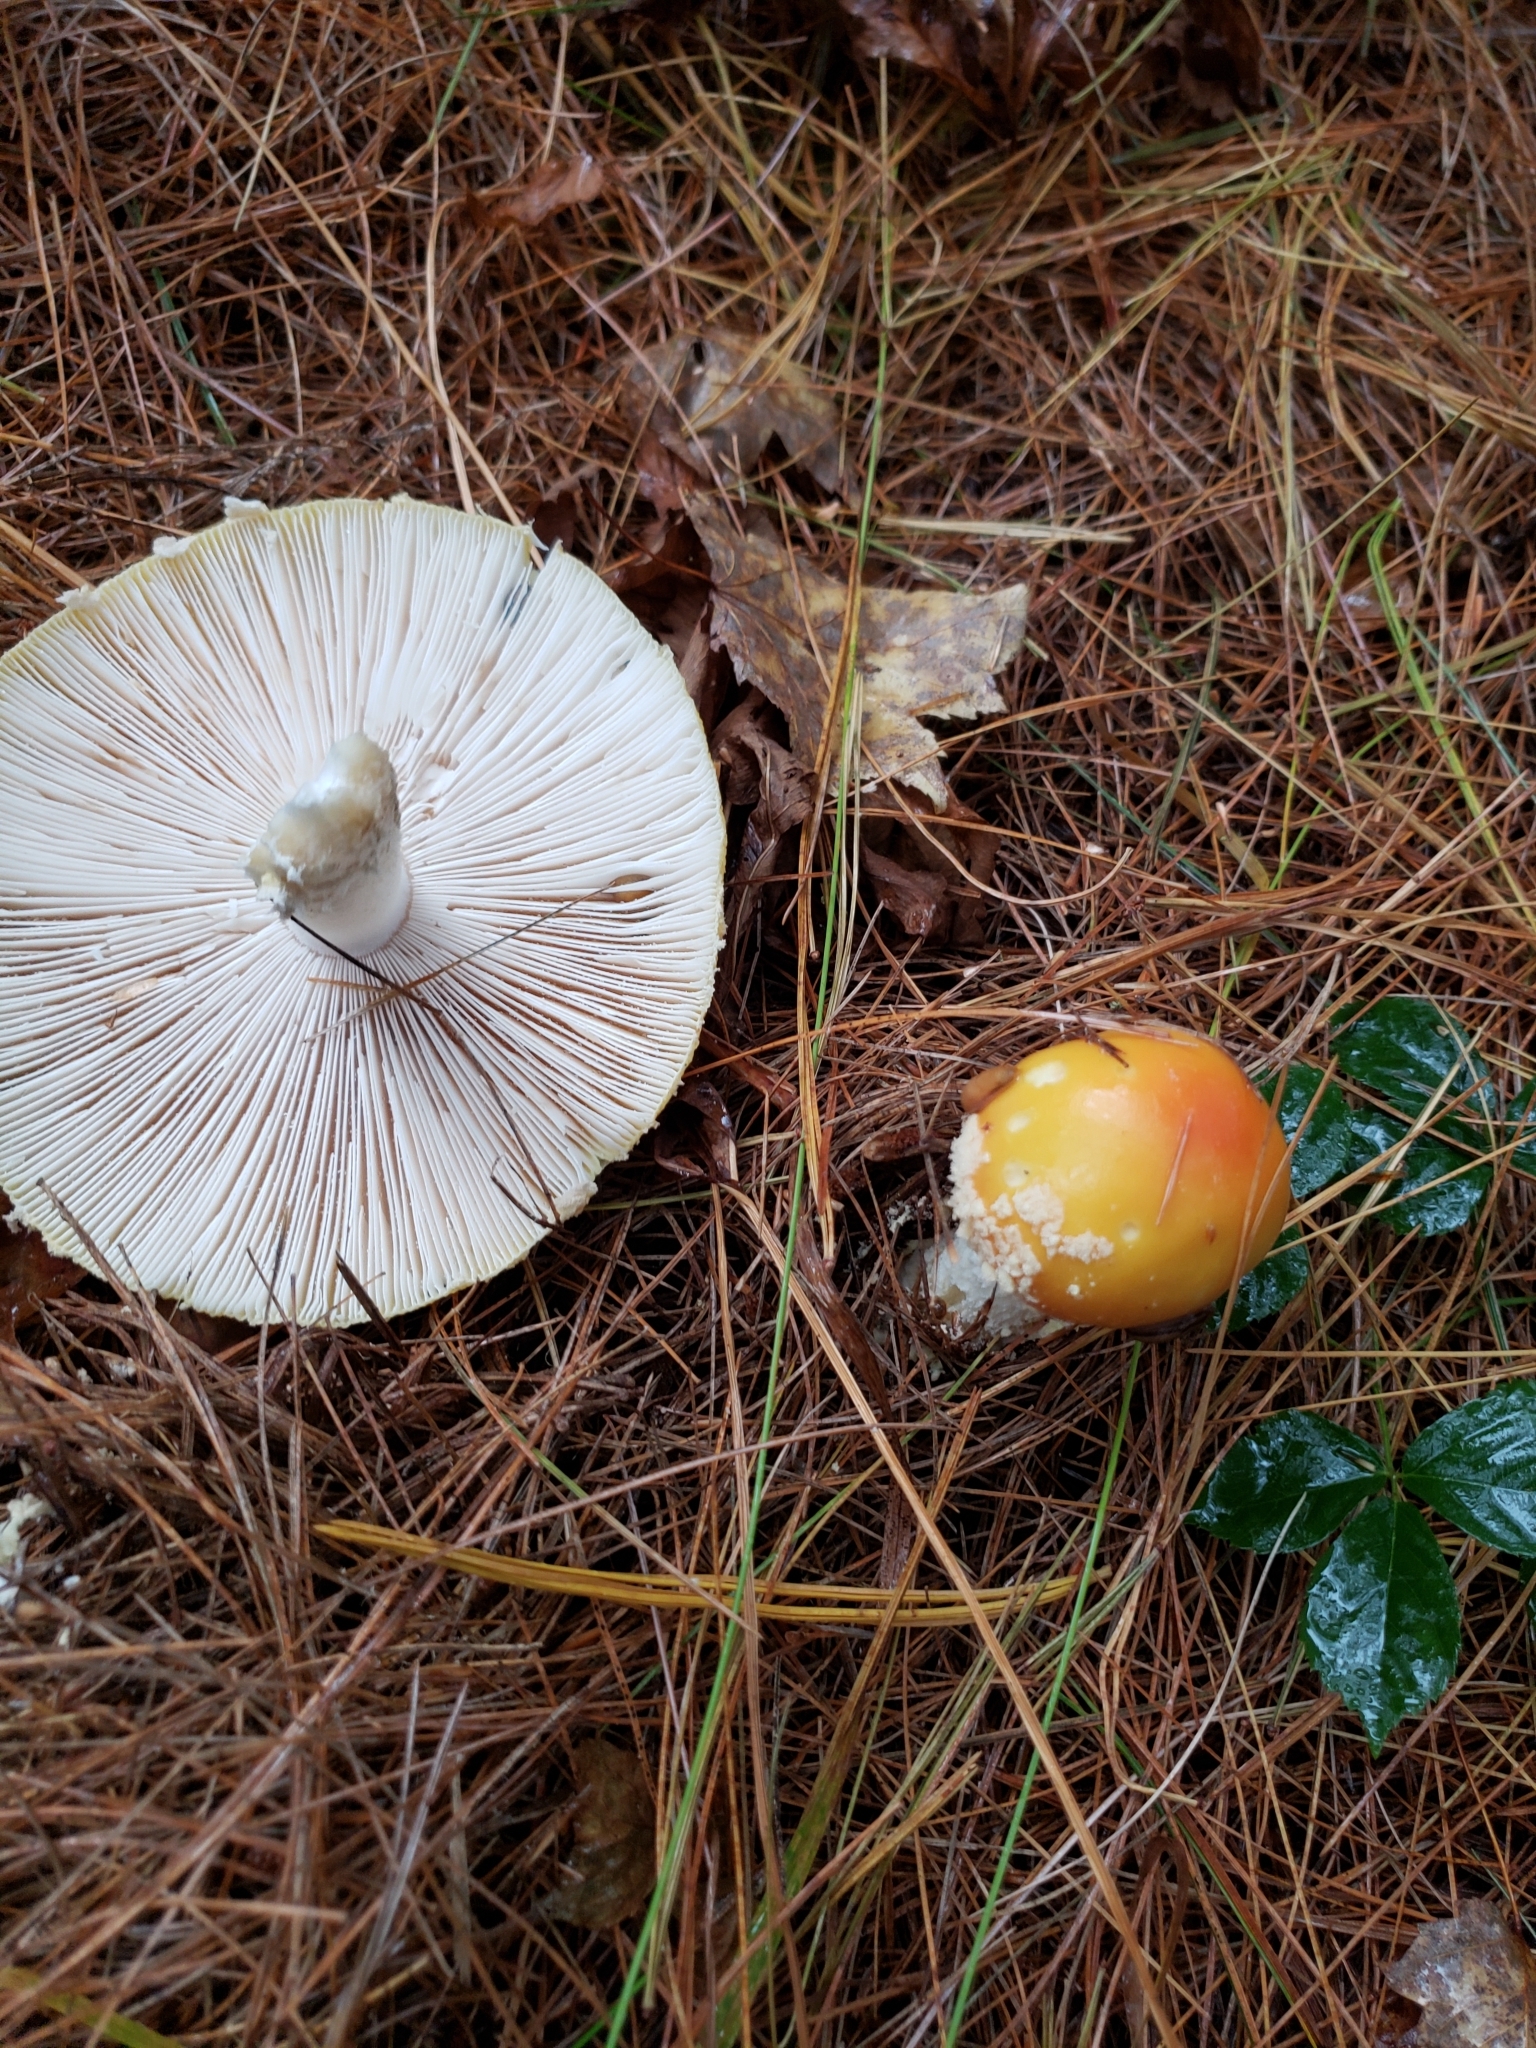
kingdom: Fungi
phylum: Basidiomycota
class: Agaricomycetes
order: Agaricales
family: Amanitaceae
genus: Amanita
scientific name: Amanita muscaria
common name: Fly agaric
